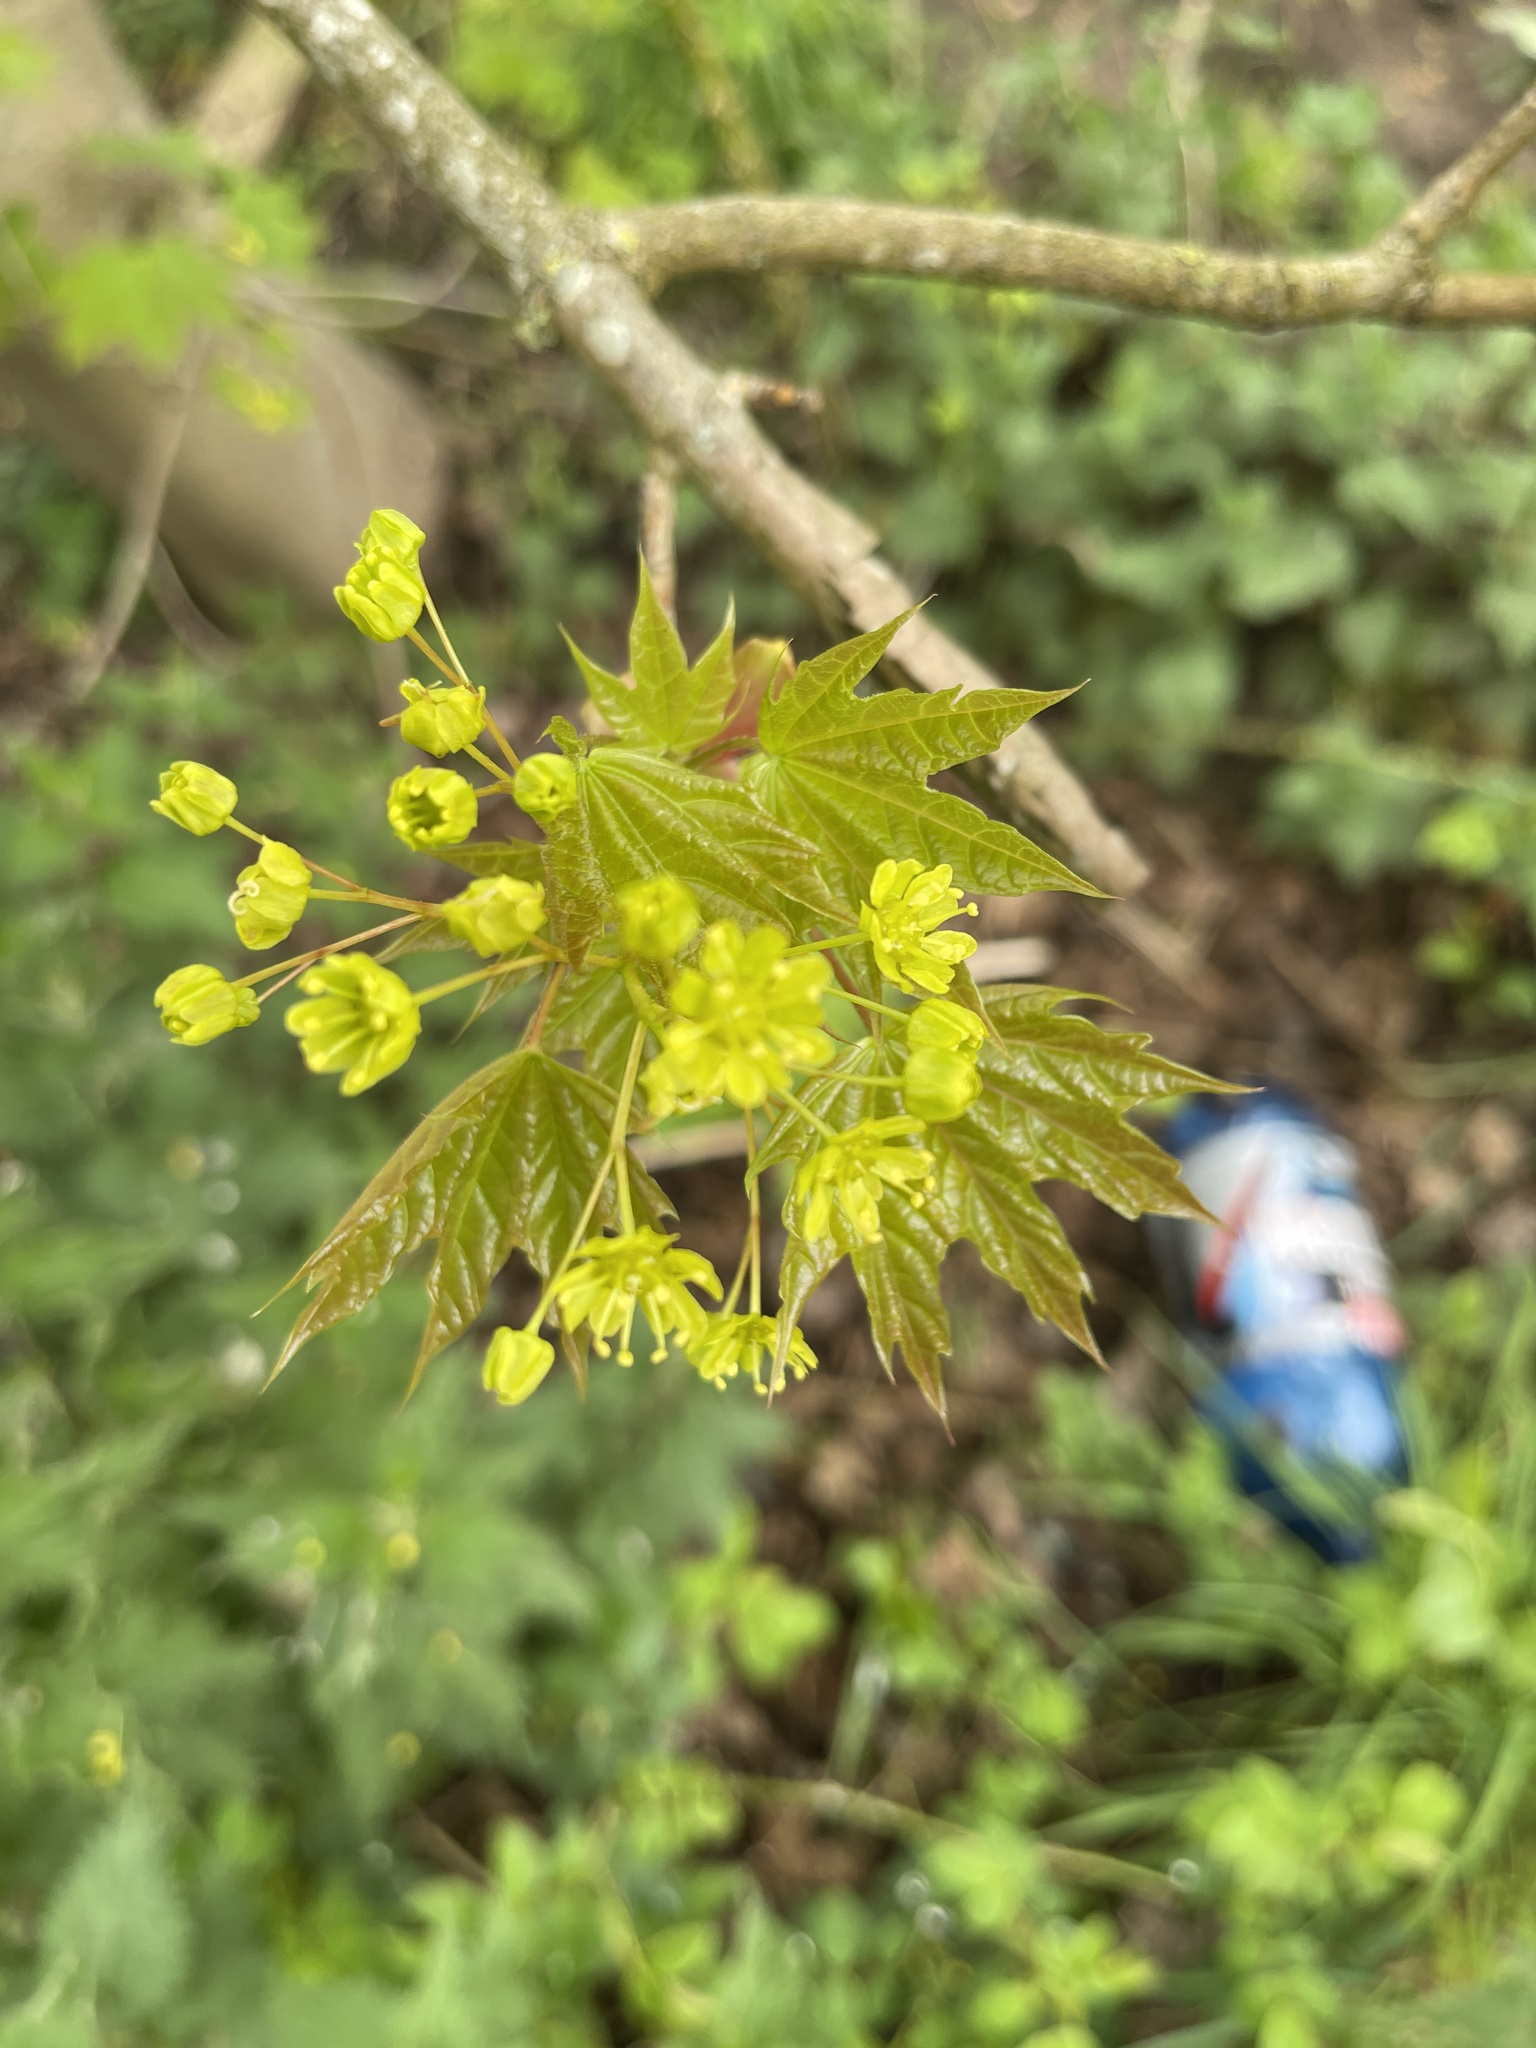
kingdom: Plantae
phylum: Tracheophyta
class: Magnoliopsida
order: Sapindales
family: Sapindaceae
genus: Acer
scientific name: Acer platanoides
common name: Norway maple
